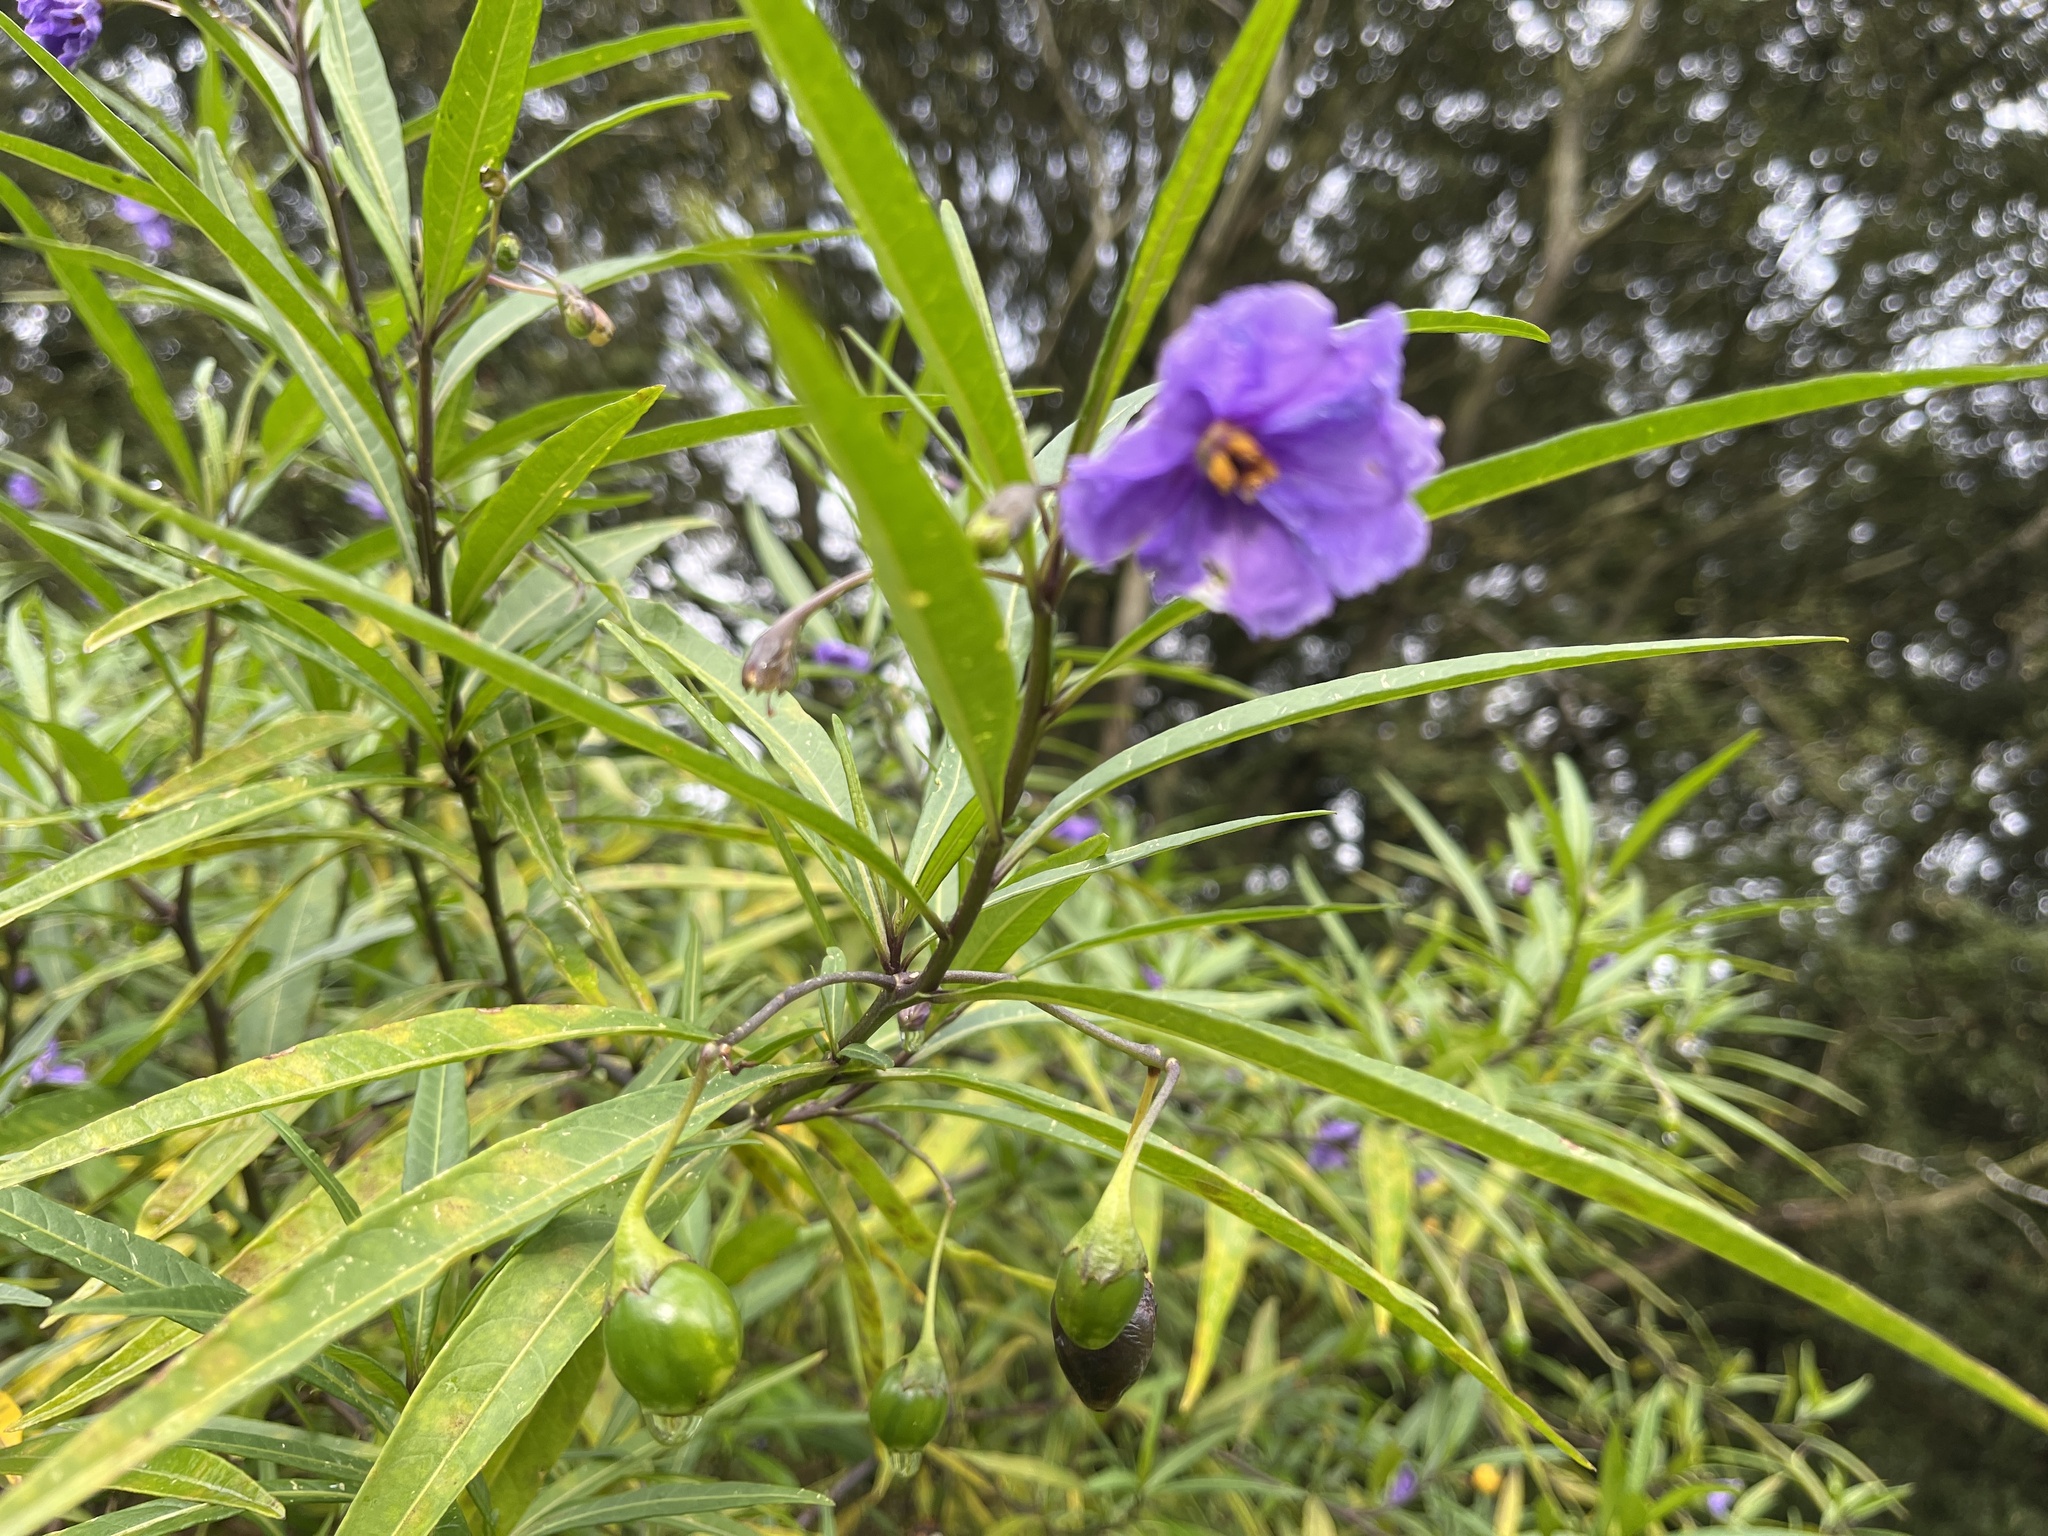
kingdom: Plantae
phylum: Tracheophyta
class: Magnoliopsida
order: Solanales
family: Solanaceae
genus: Solanum
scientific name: Solanum laciniatum
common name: Kangaroo-apple
